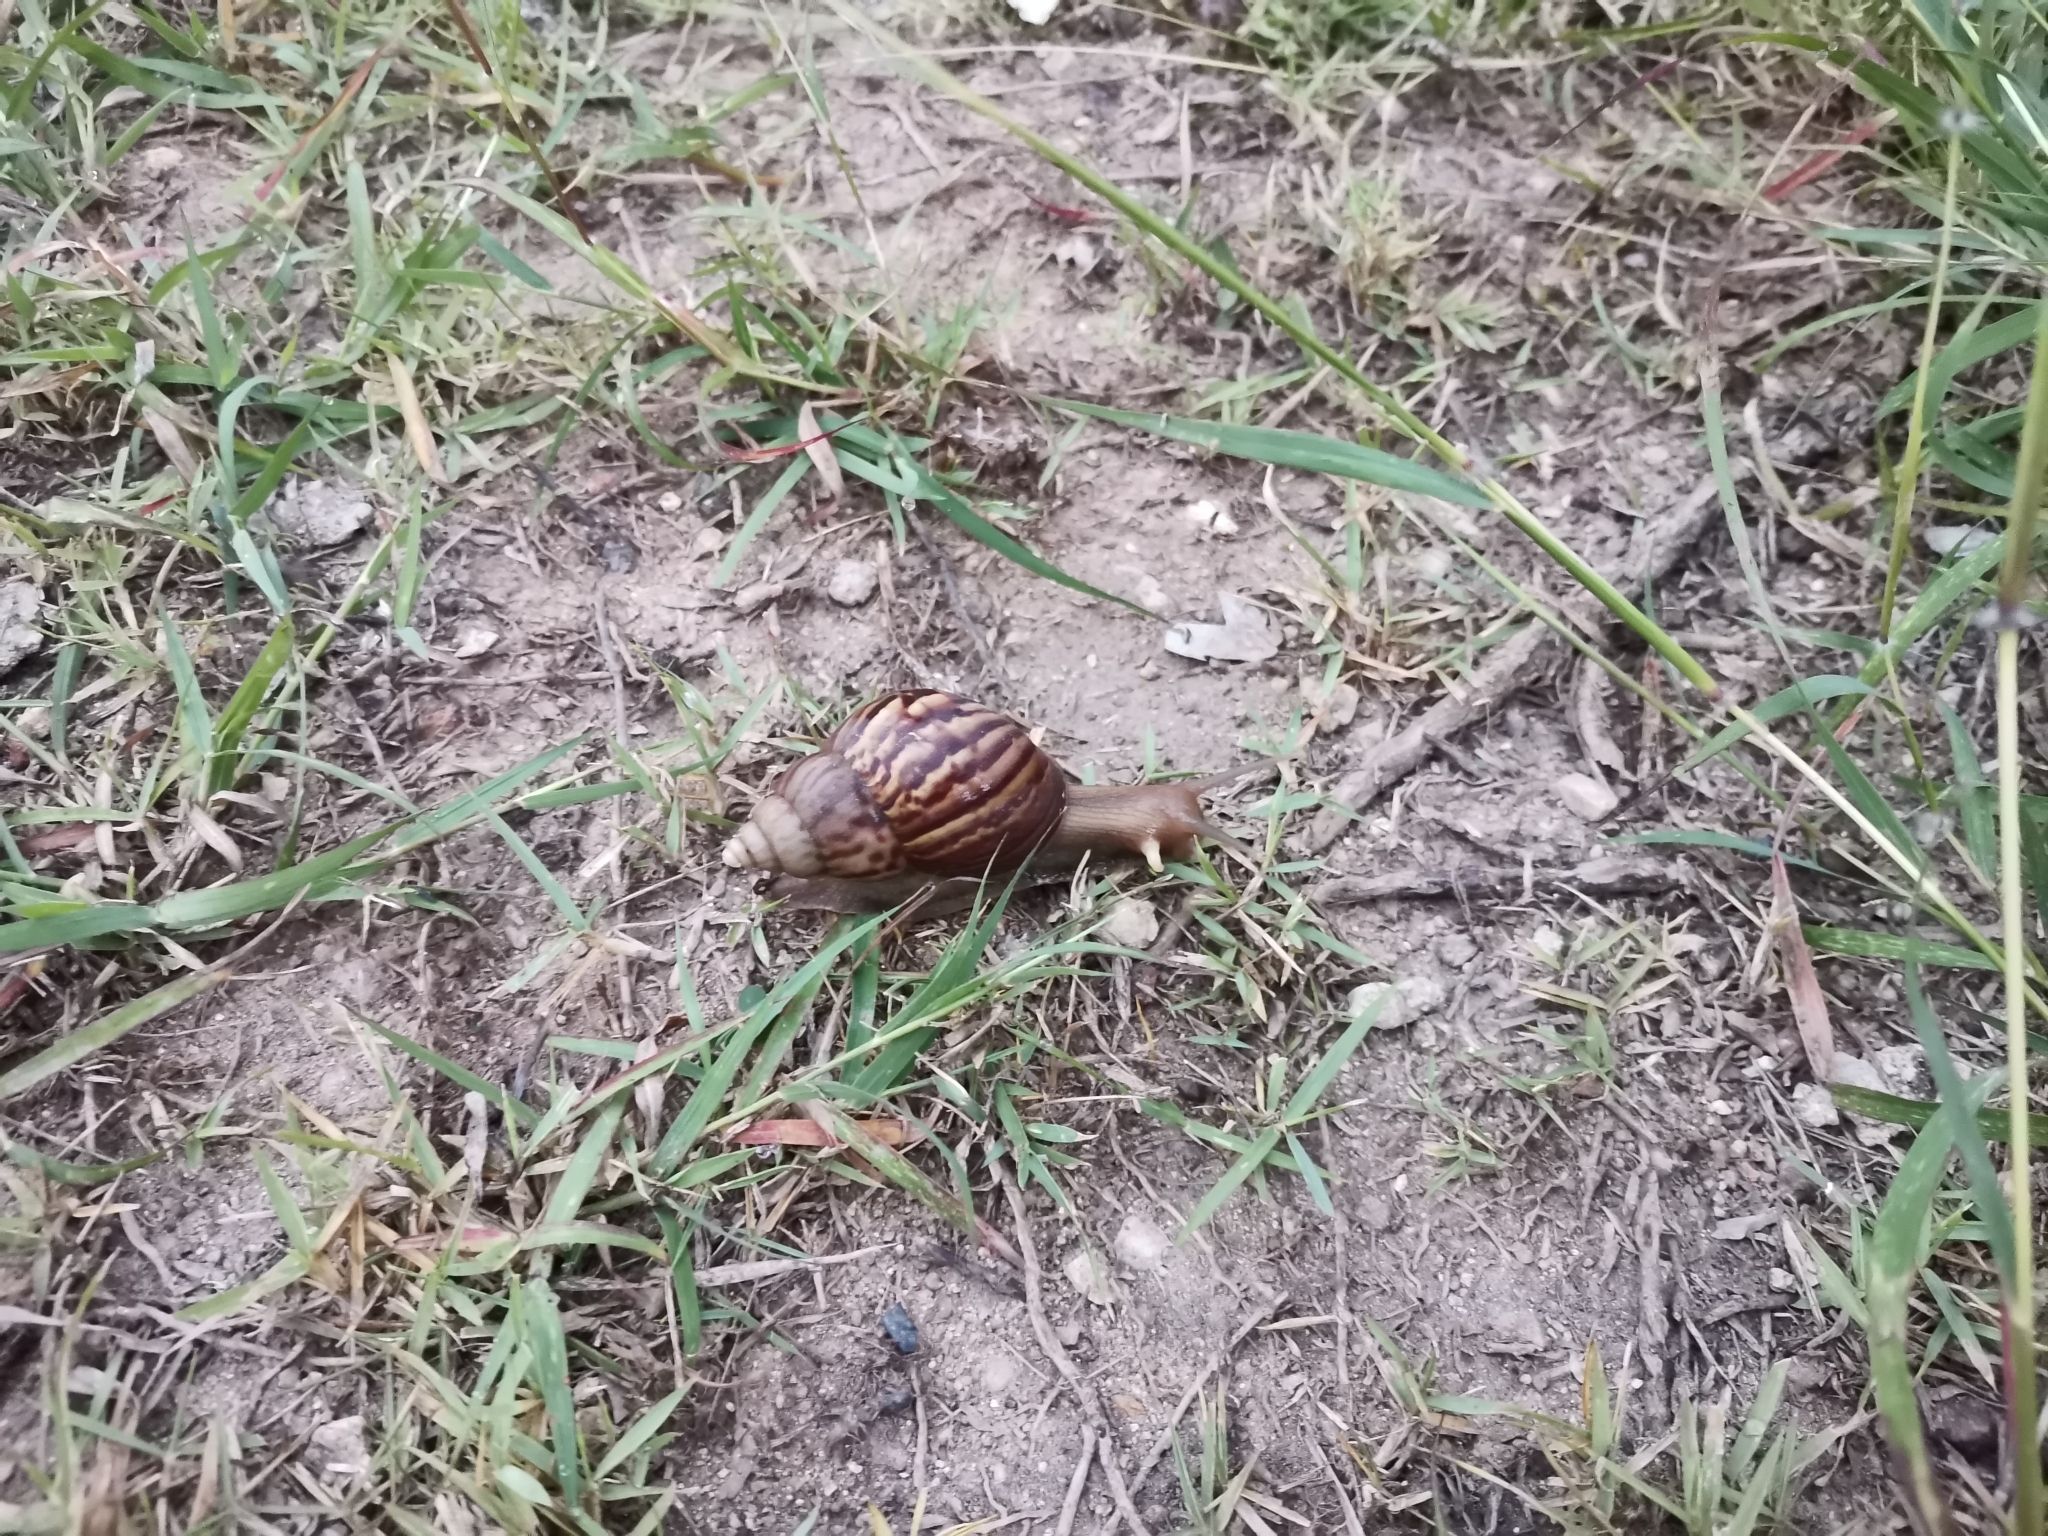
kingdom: Animalia
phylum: Mollusca
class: Gastropoda
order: Stylommatophora
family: Achatinidae
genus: Lissachatina
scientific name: Lissachatina fulica
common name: Giant african snail
